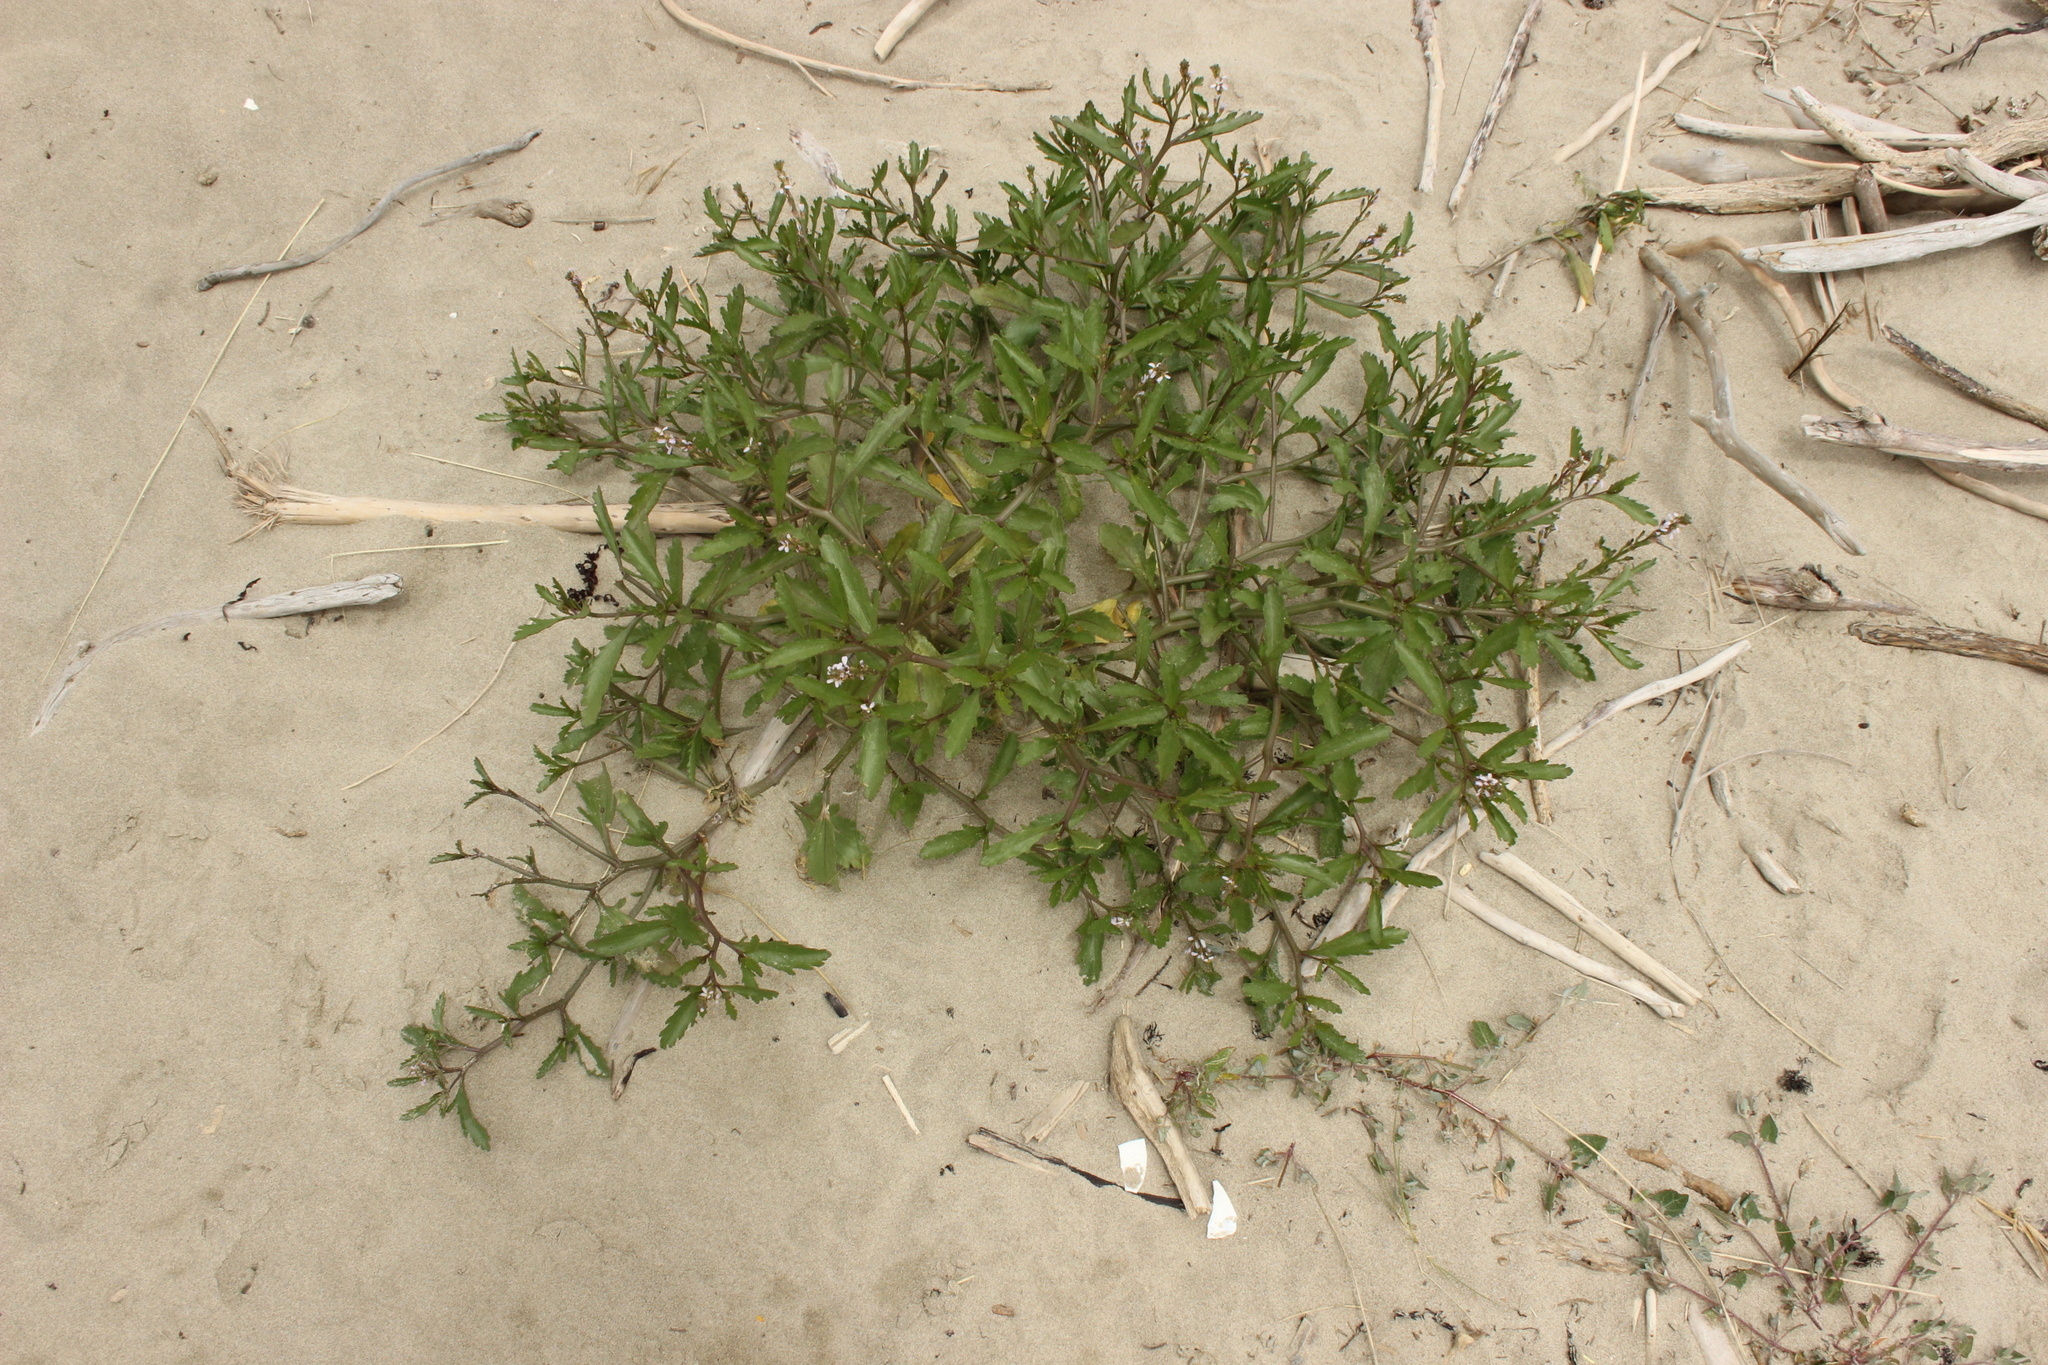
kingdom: Plantae
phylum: Tracheophyta
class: Magnoliopsida
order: Brassicales
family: Brassicaceae
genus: Cakile
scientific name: Cakile edentula
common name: American sea rocket
